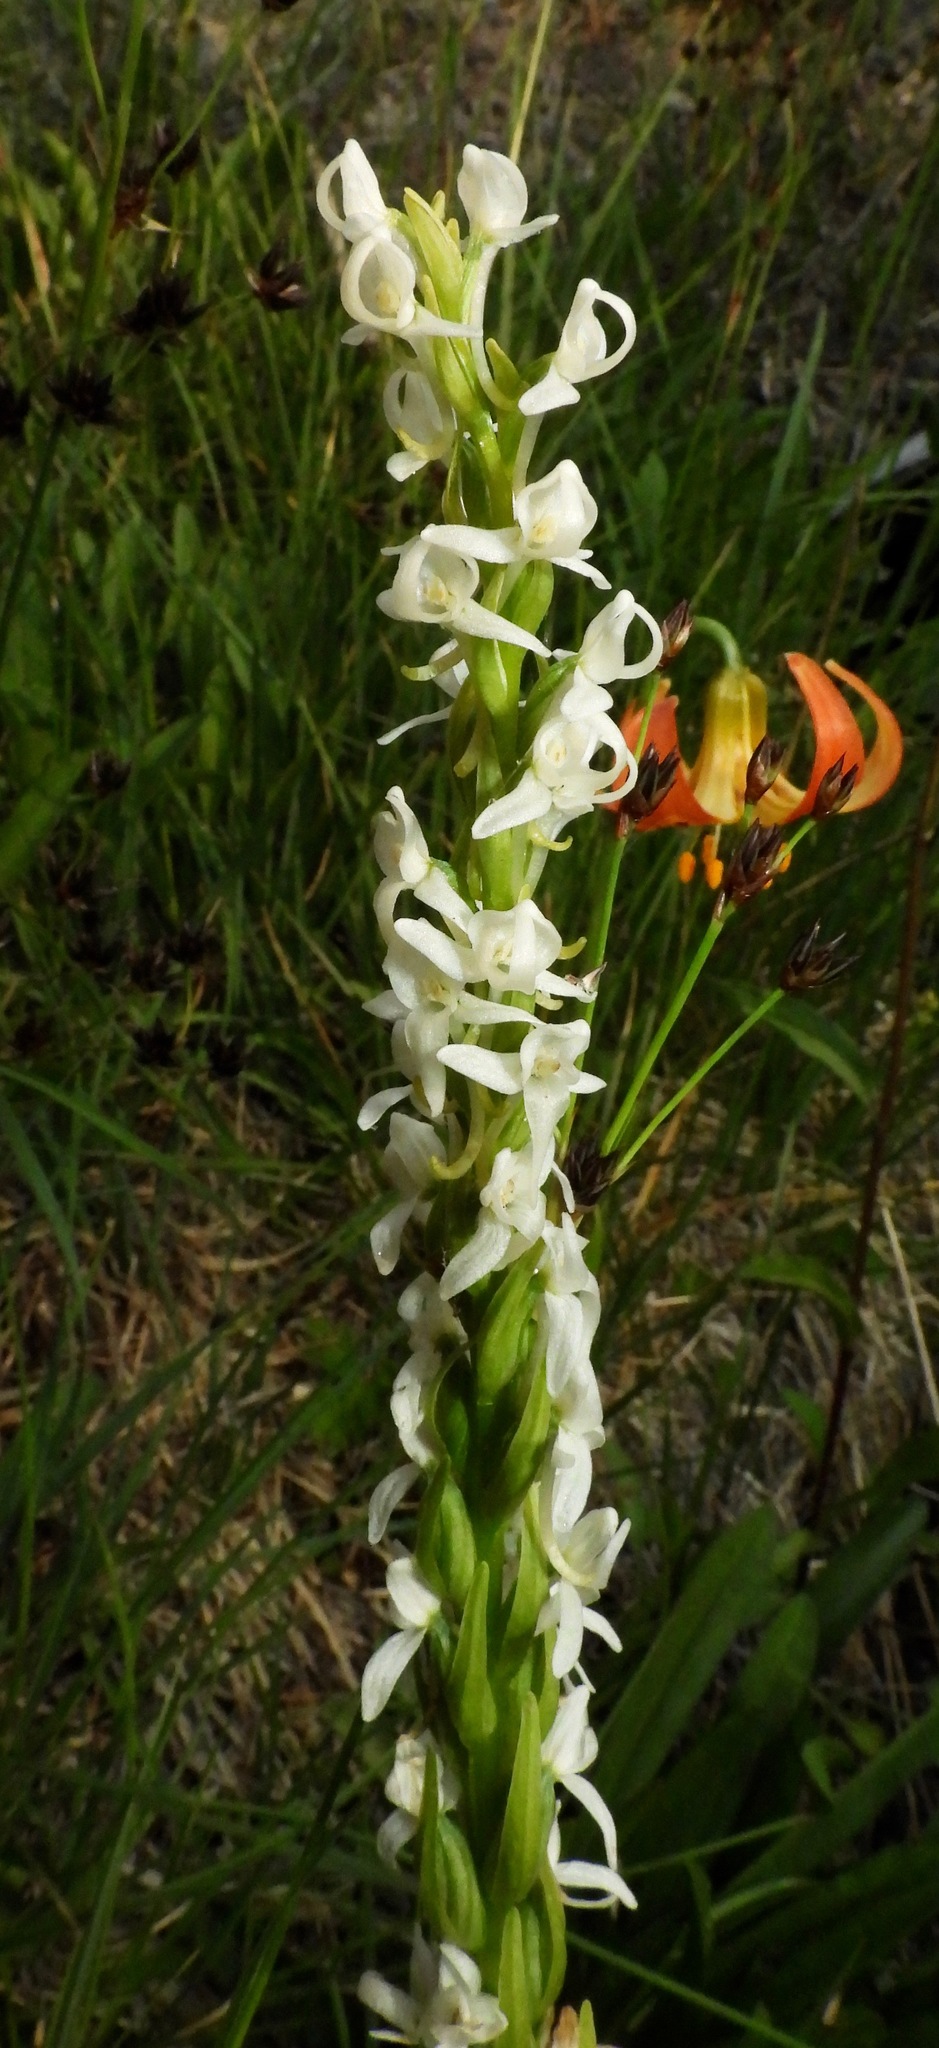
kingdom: Plantae
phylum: Tracheophyta
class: Liliopsida
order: Asparagales
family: Orchidaceae
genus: Platanthera
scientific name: Platanthera dilatata
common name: Bog candles
